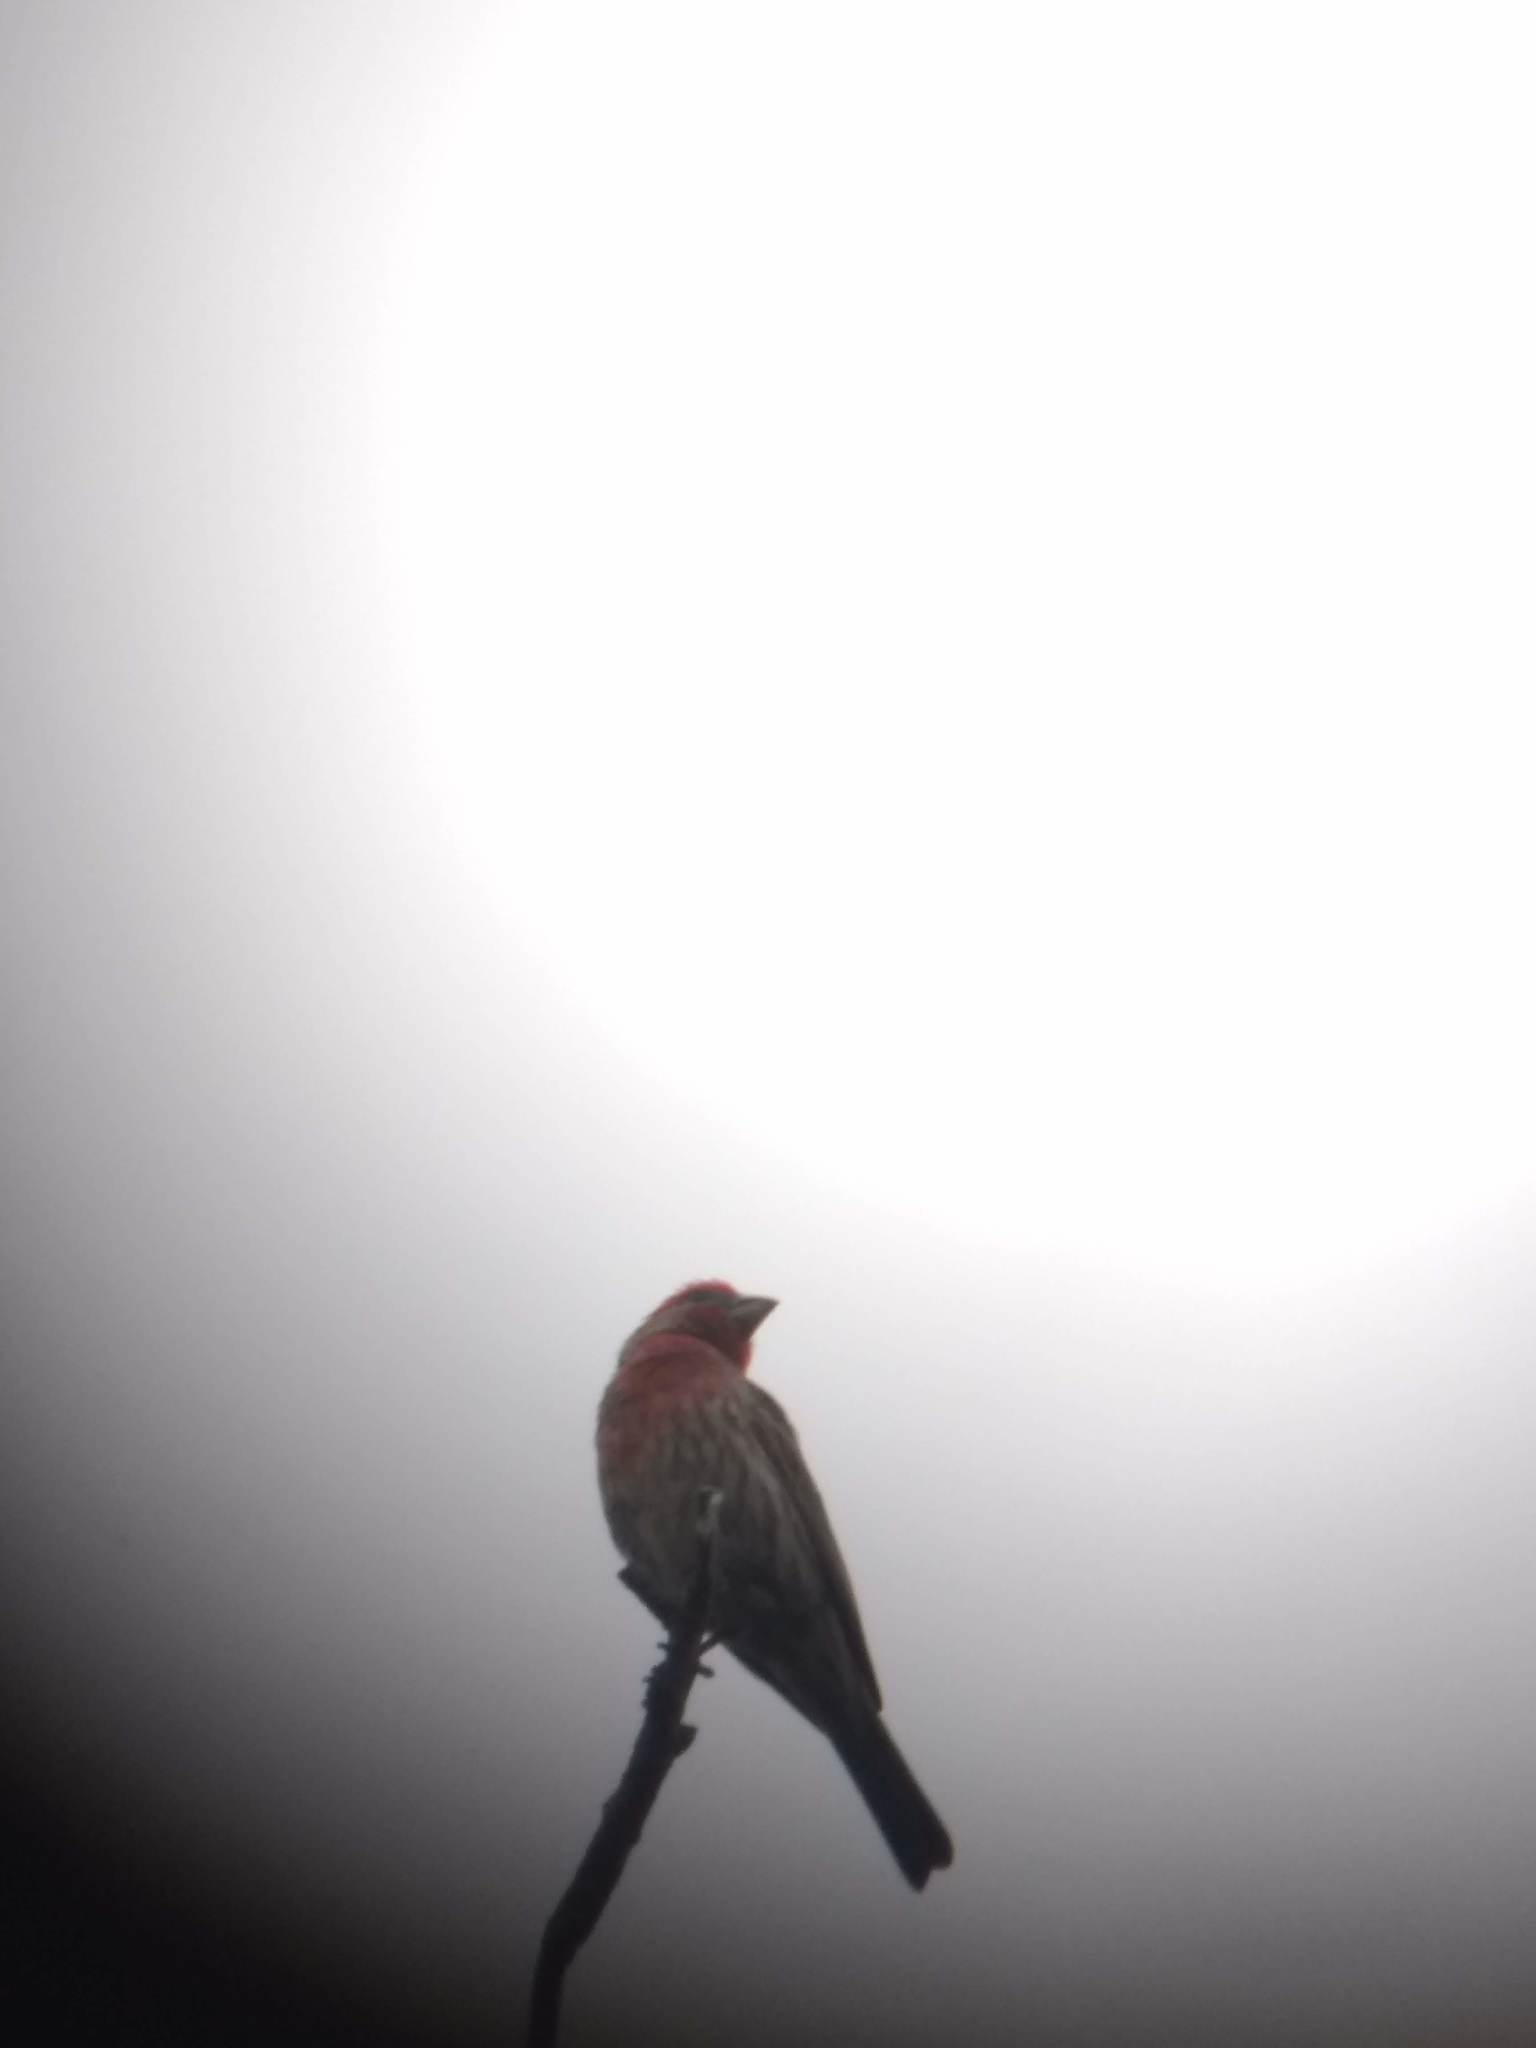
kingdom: Animalia
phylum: Chordata
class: Aves
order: Passeriformes
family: Fringillidae
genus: Haemorhous
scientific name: Haemorhous mexicanus
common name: House finch
